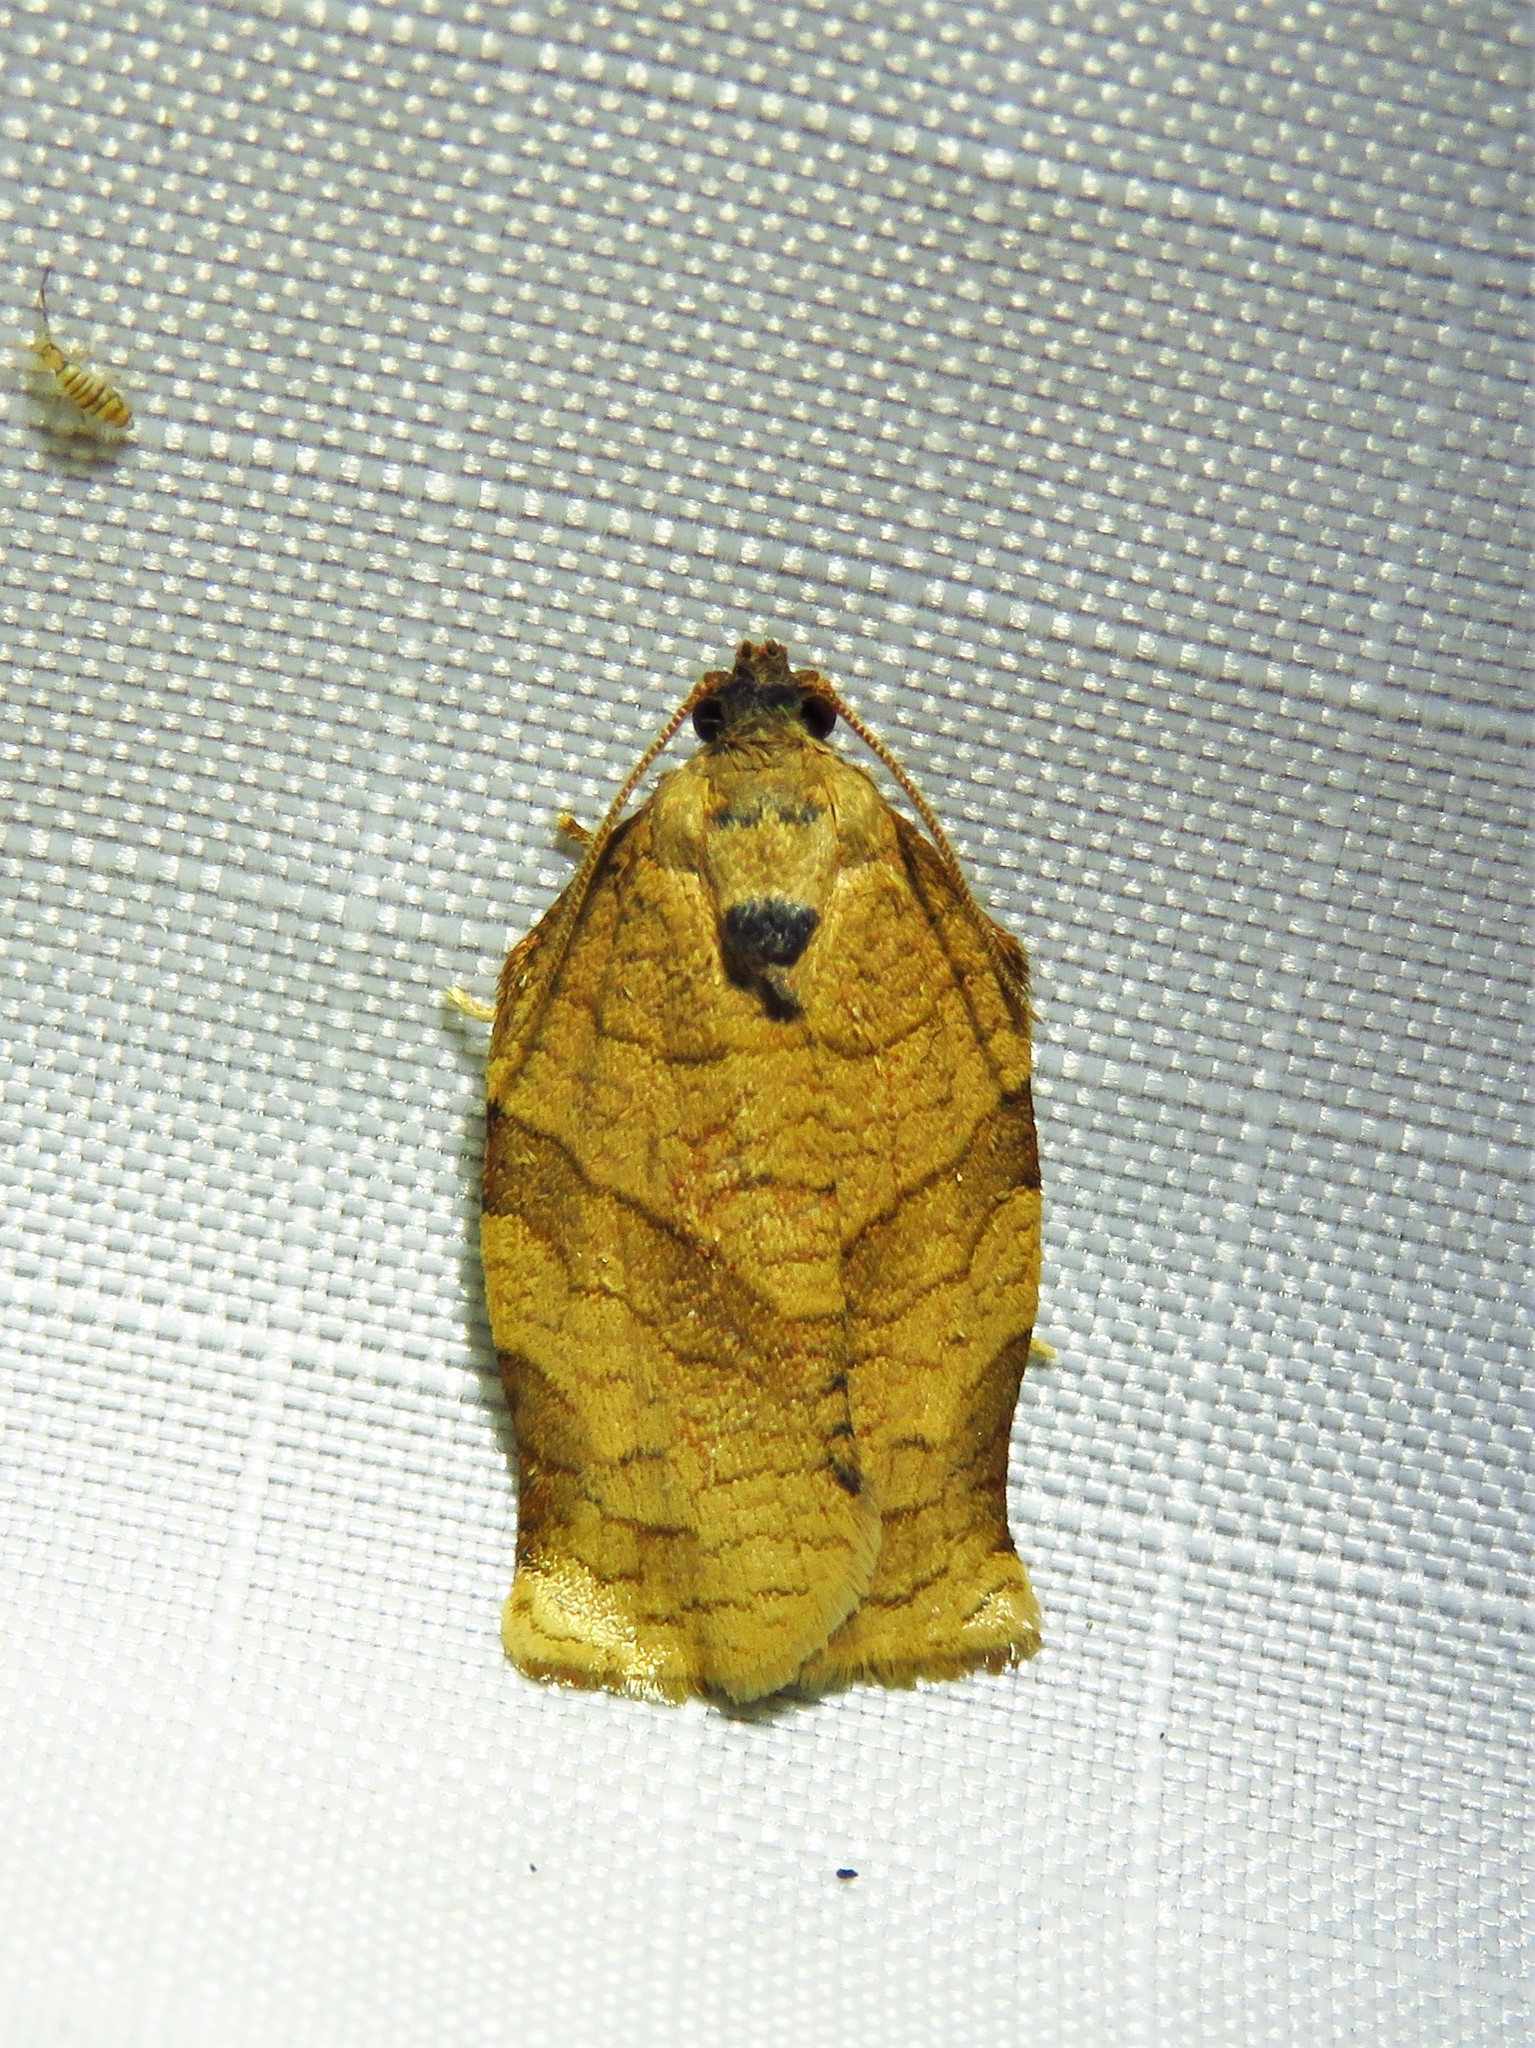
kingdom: Animalia
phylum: Arthropoda
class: Insecta
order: Lepidoptera
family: Tortricidae
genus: Choristoneura
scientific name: Choristoneura rosaceana
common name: Oblique-banded leafroller moth
